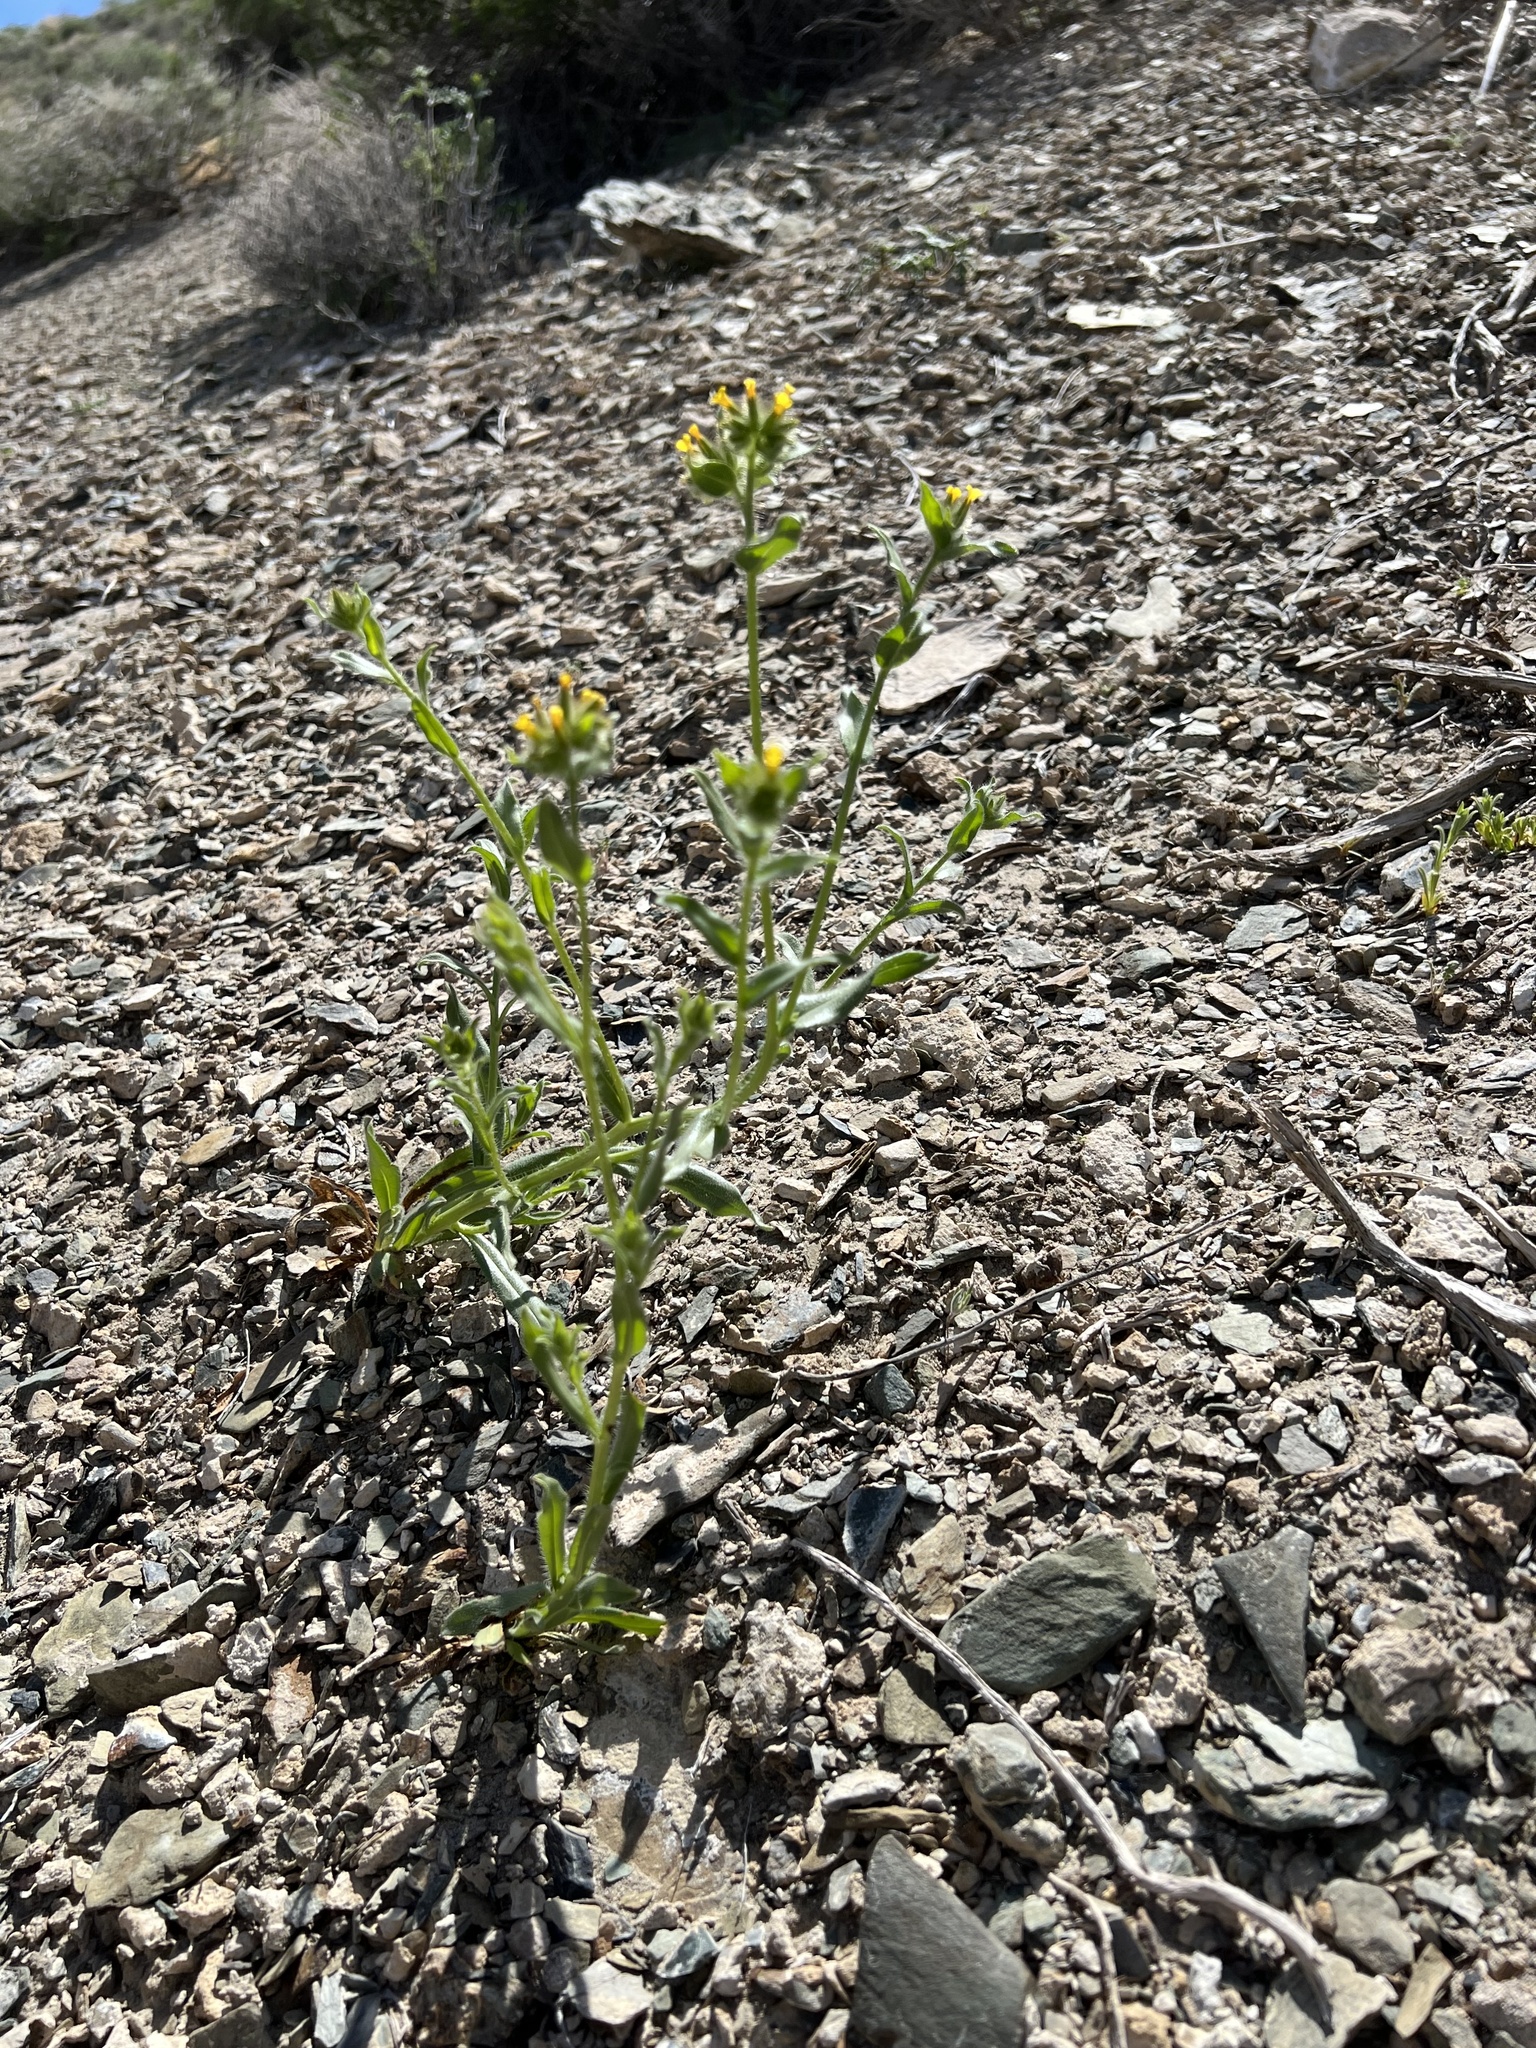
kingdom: Plantae
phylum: Tracheophyta
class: Magnoliopsida
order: Boraginales
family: Boraginaceae
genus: Amsinckia
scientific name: Amsinckia tessellata
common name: Tessellate fiddleneck
